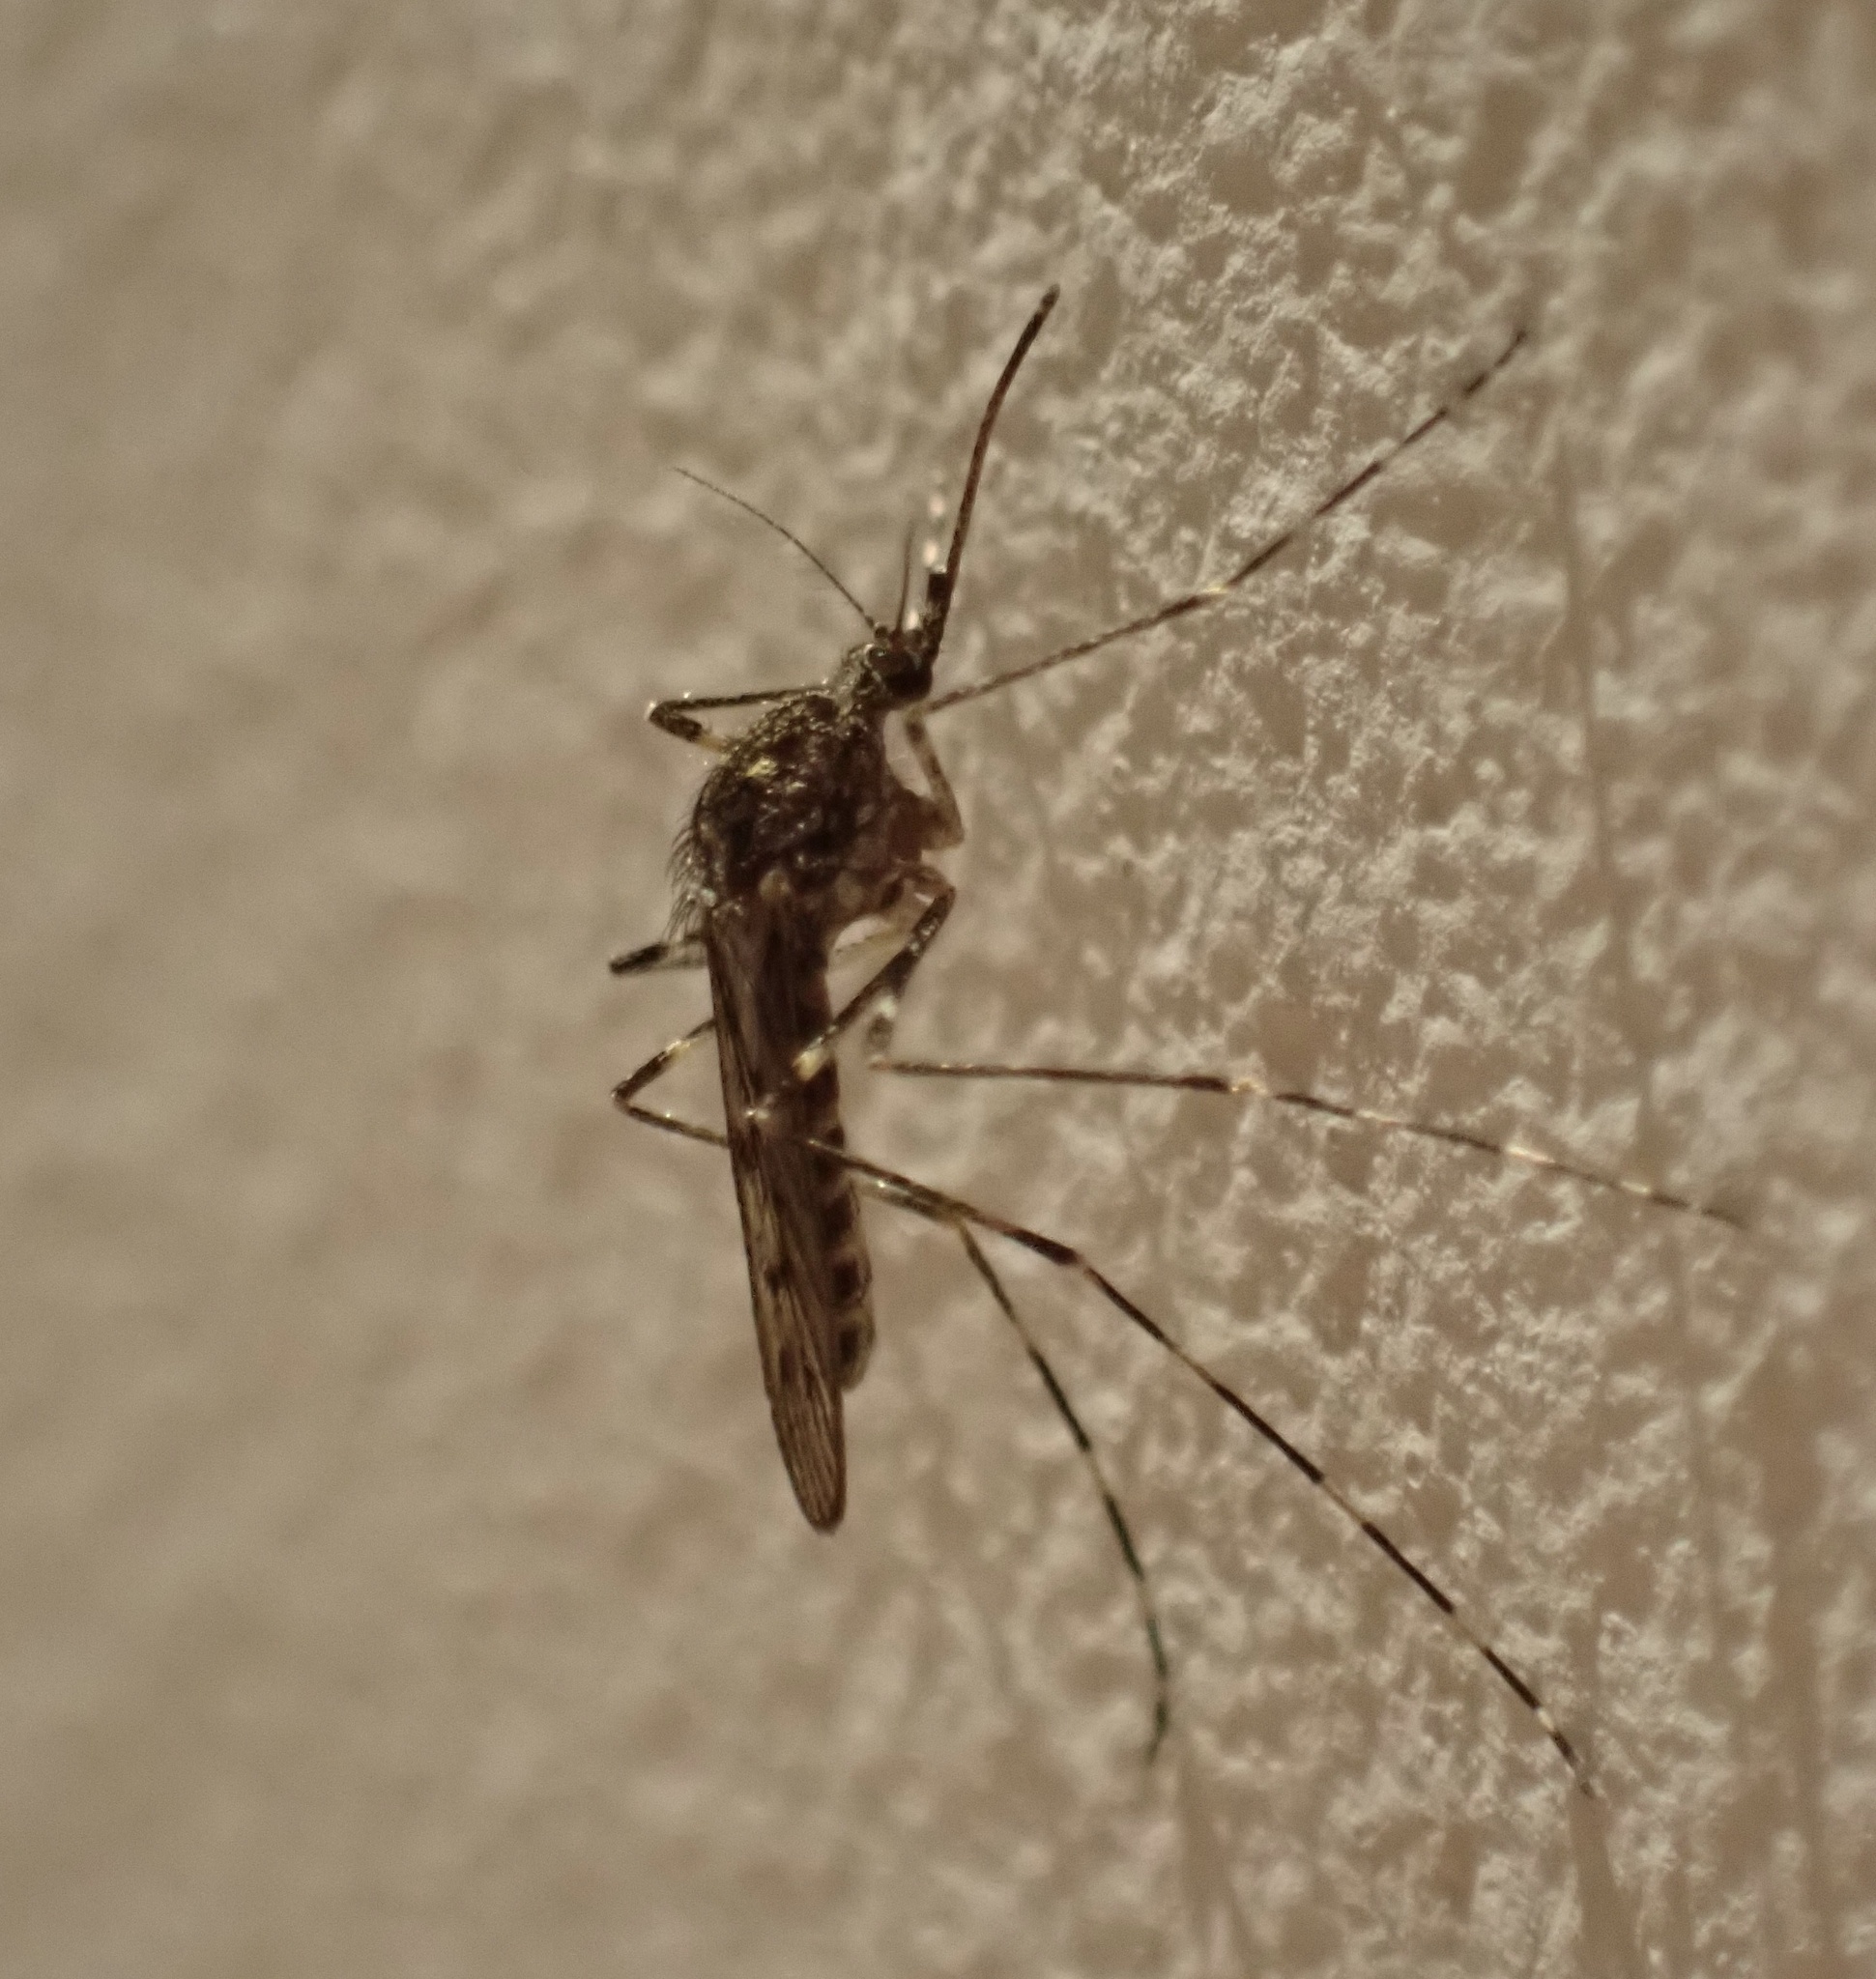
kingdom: Animalia
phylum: Arthropoda
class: Insecta
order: Diptera
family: Culicidae
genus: Culiseta
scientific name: Culiseta annulata
